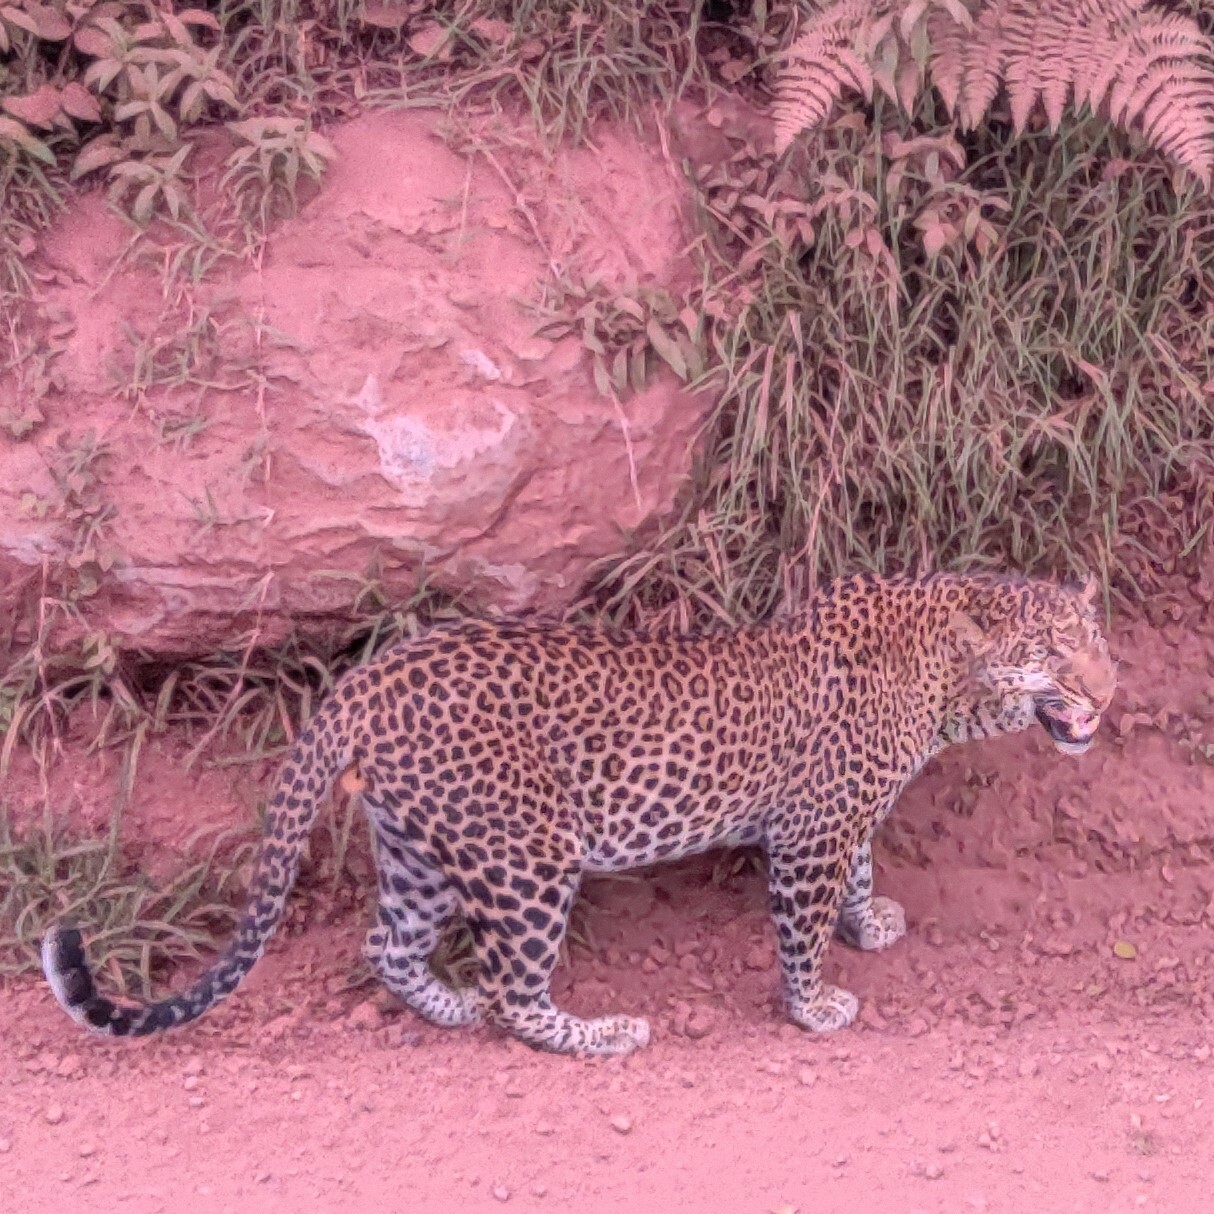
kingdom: Animalia
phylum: Chordata
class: Mammalia
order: Carnivora
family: Felidae
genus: Panthera
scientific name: Panthera pardus
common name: Leopard
